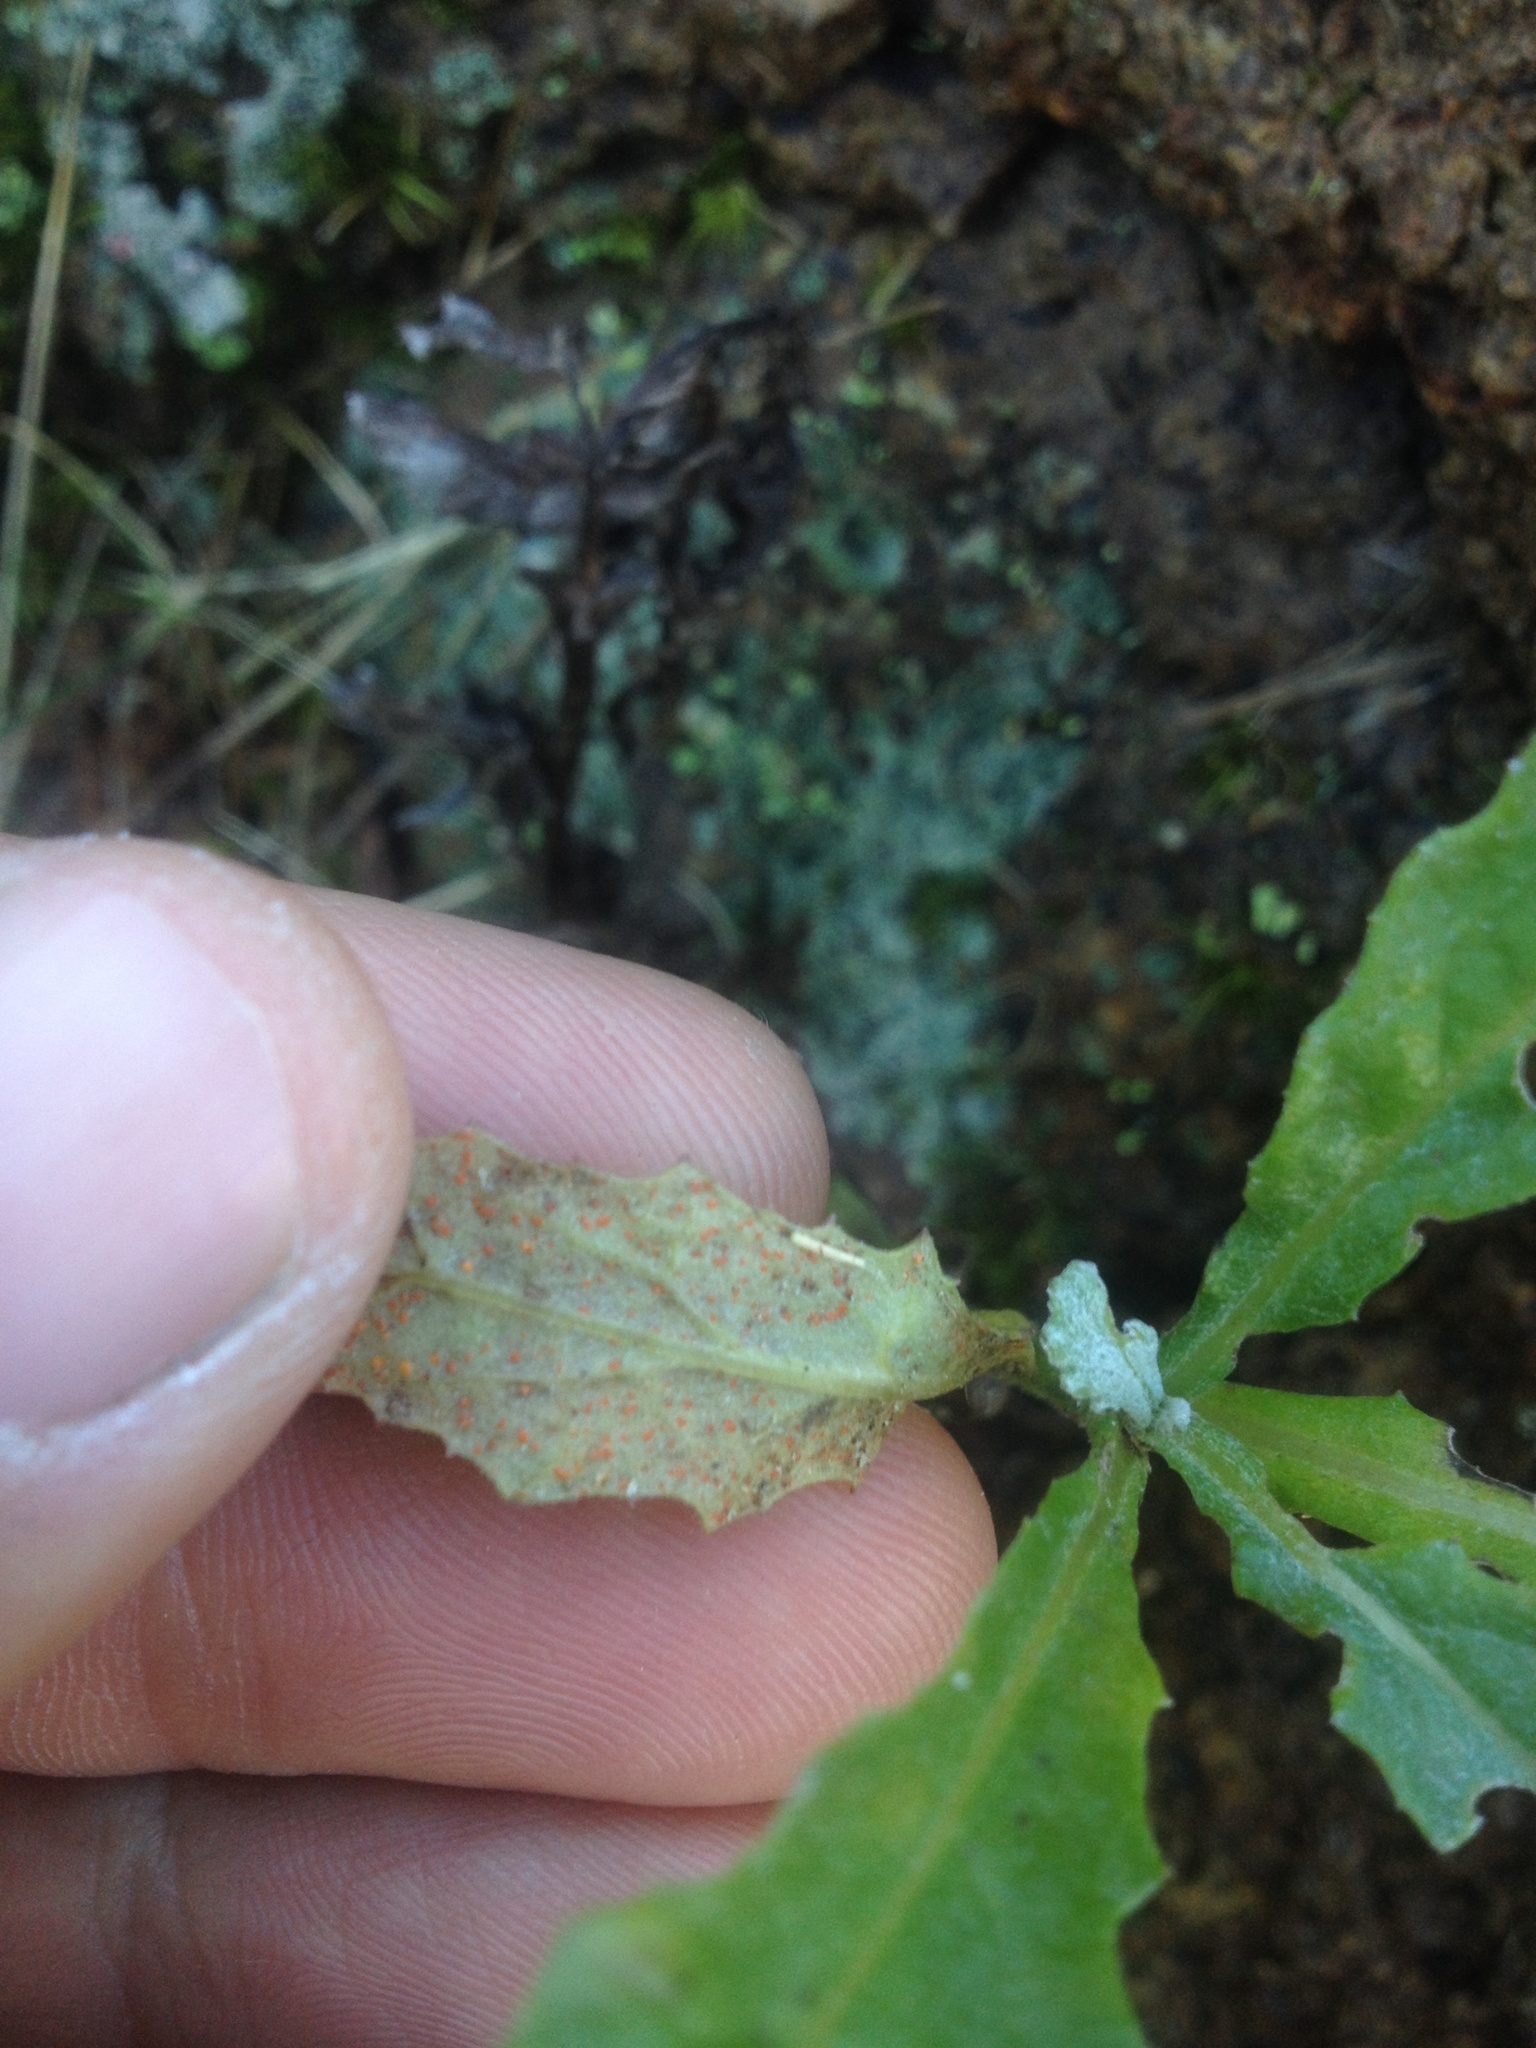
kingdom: Plantae
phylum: Tracheophyta
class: Magnoliopsida
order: Asterales
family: Asteraceae
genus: Senecio
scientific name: Senecio glomeratus
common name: Cutleaf burnweed
